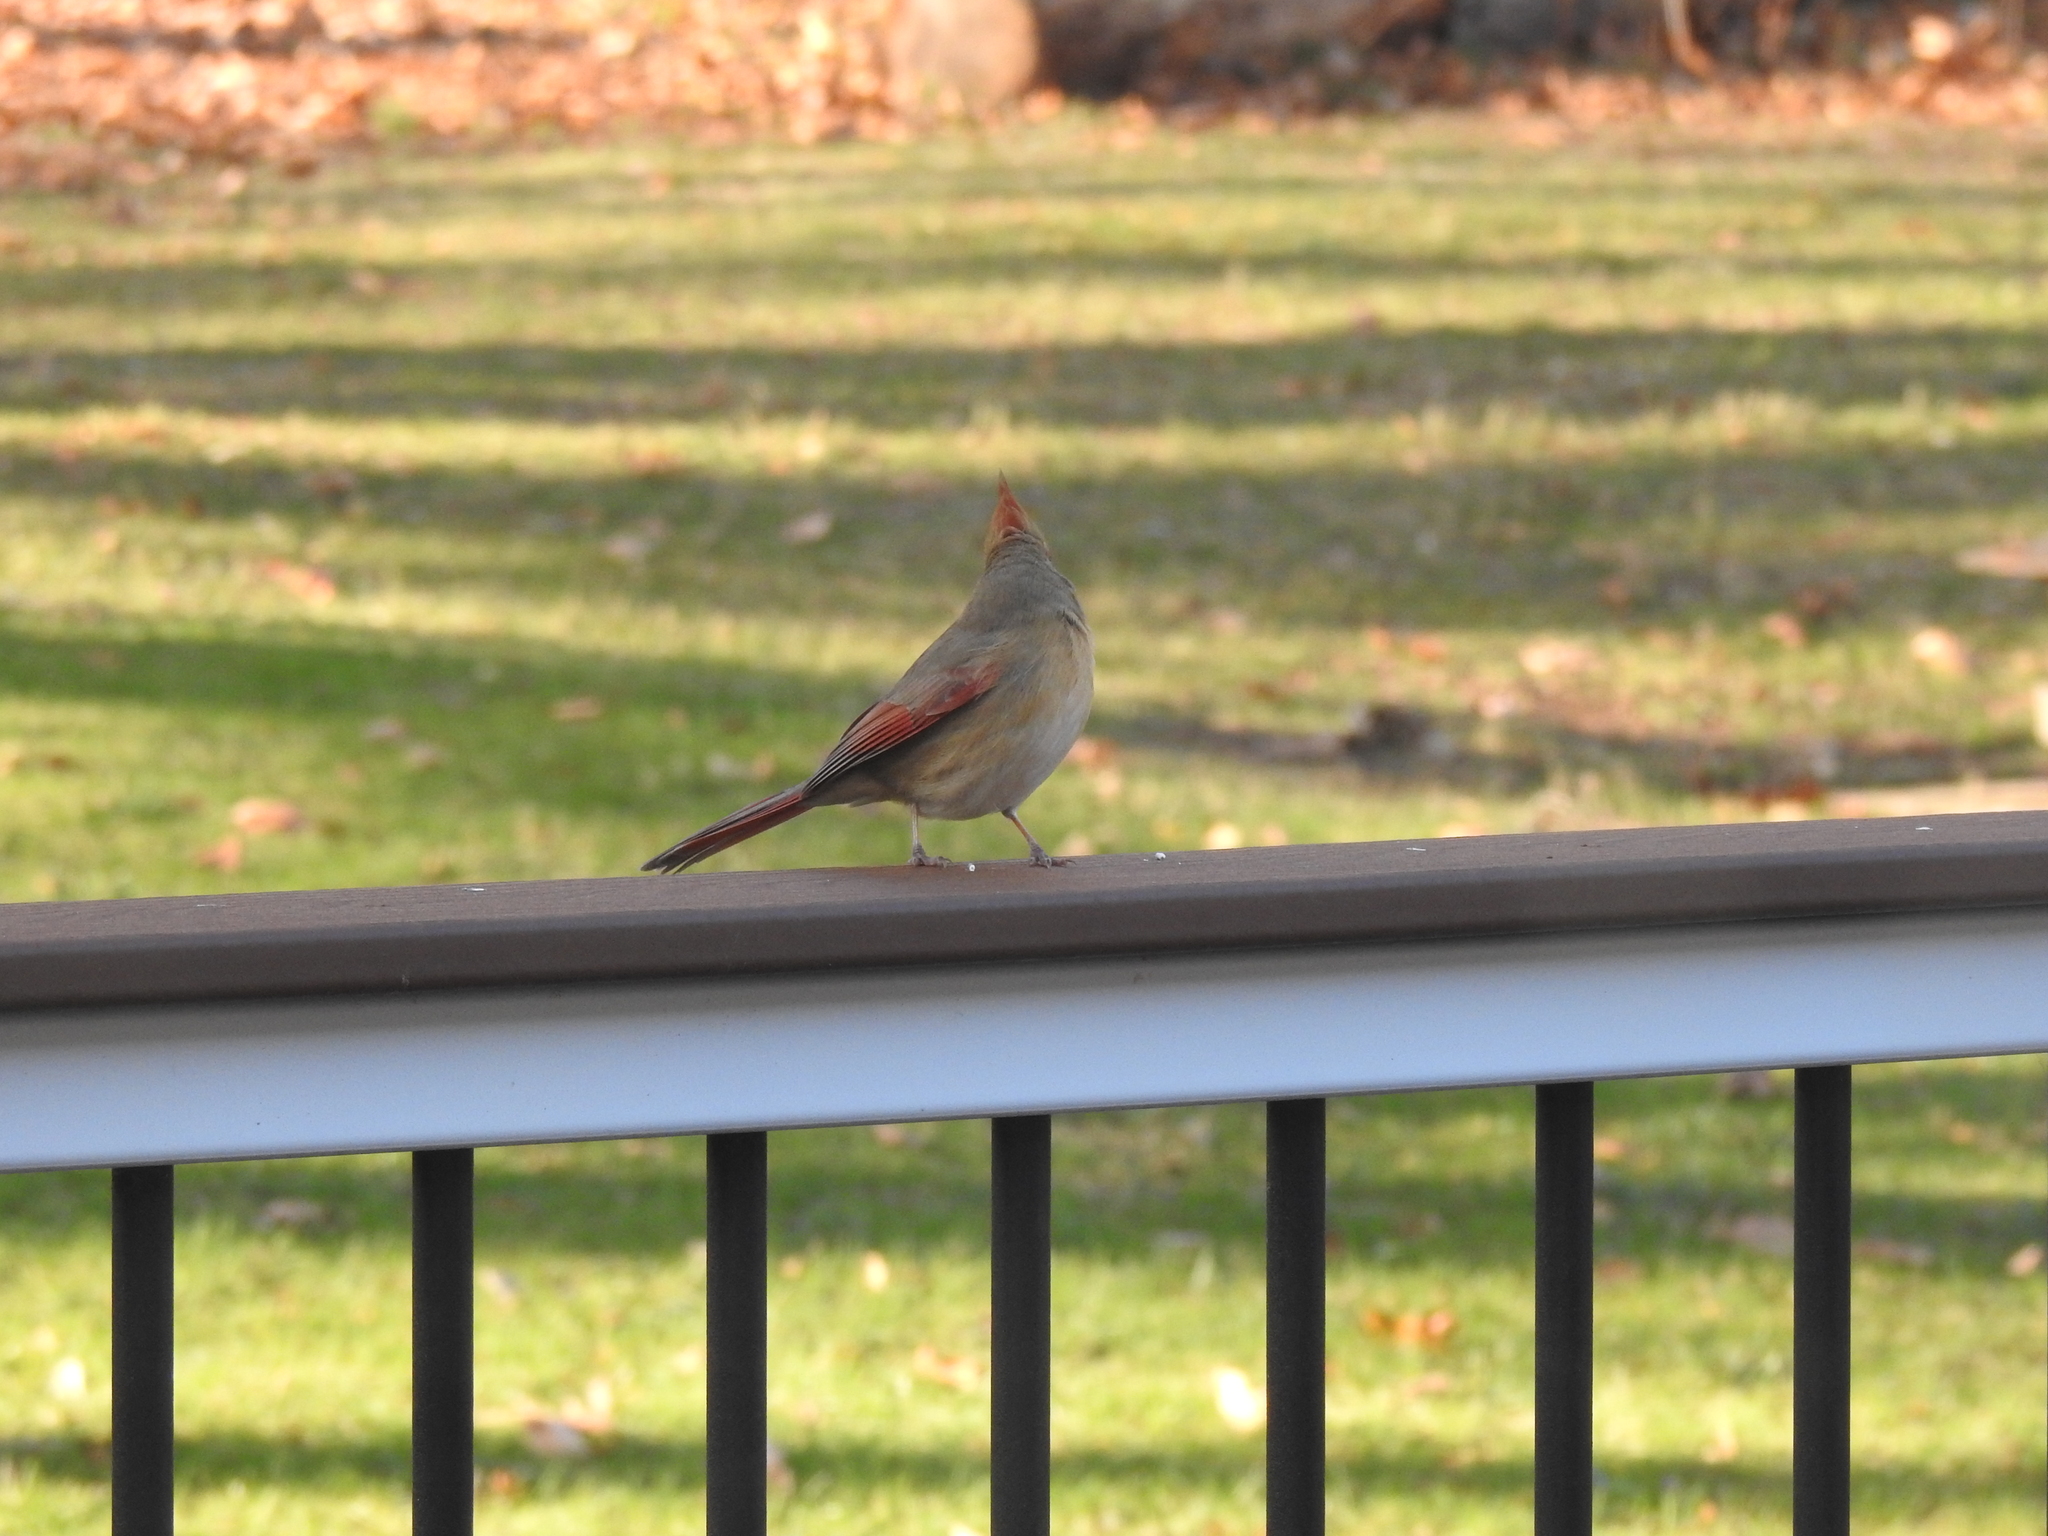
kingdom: Animalia
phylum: Chordata
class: Aves
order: Passeriformes
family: Cardinalidae
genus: Cardinalis
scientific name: Cardinalis cardinalis
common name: Northern cardinal
